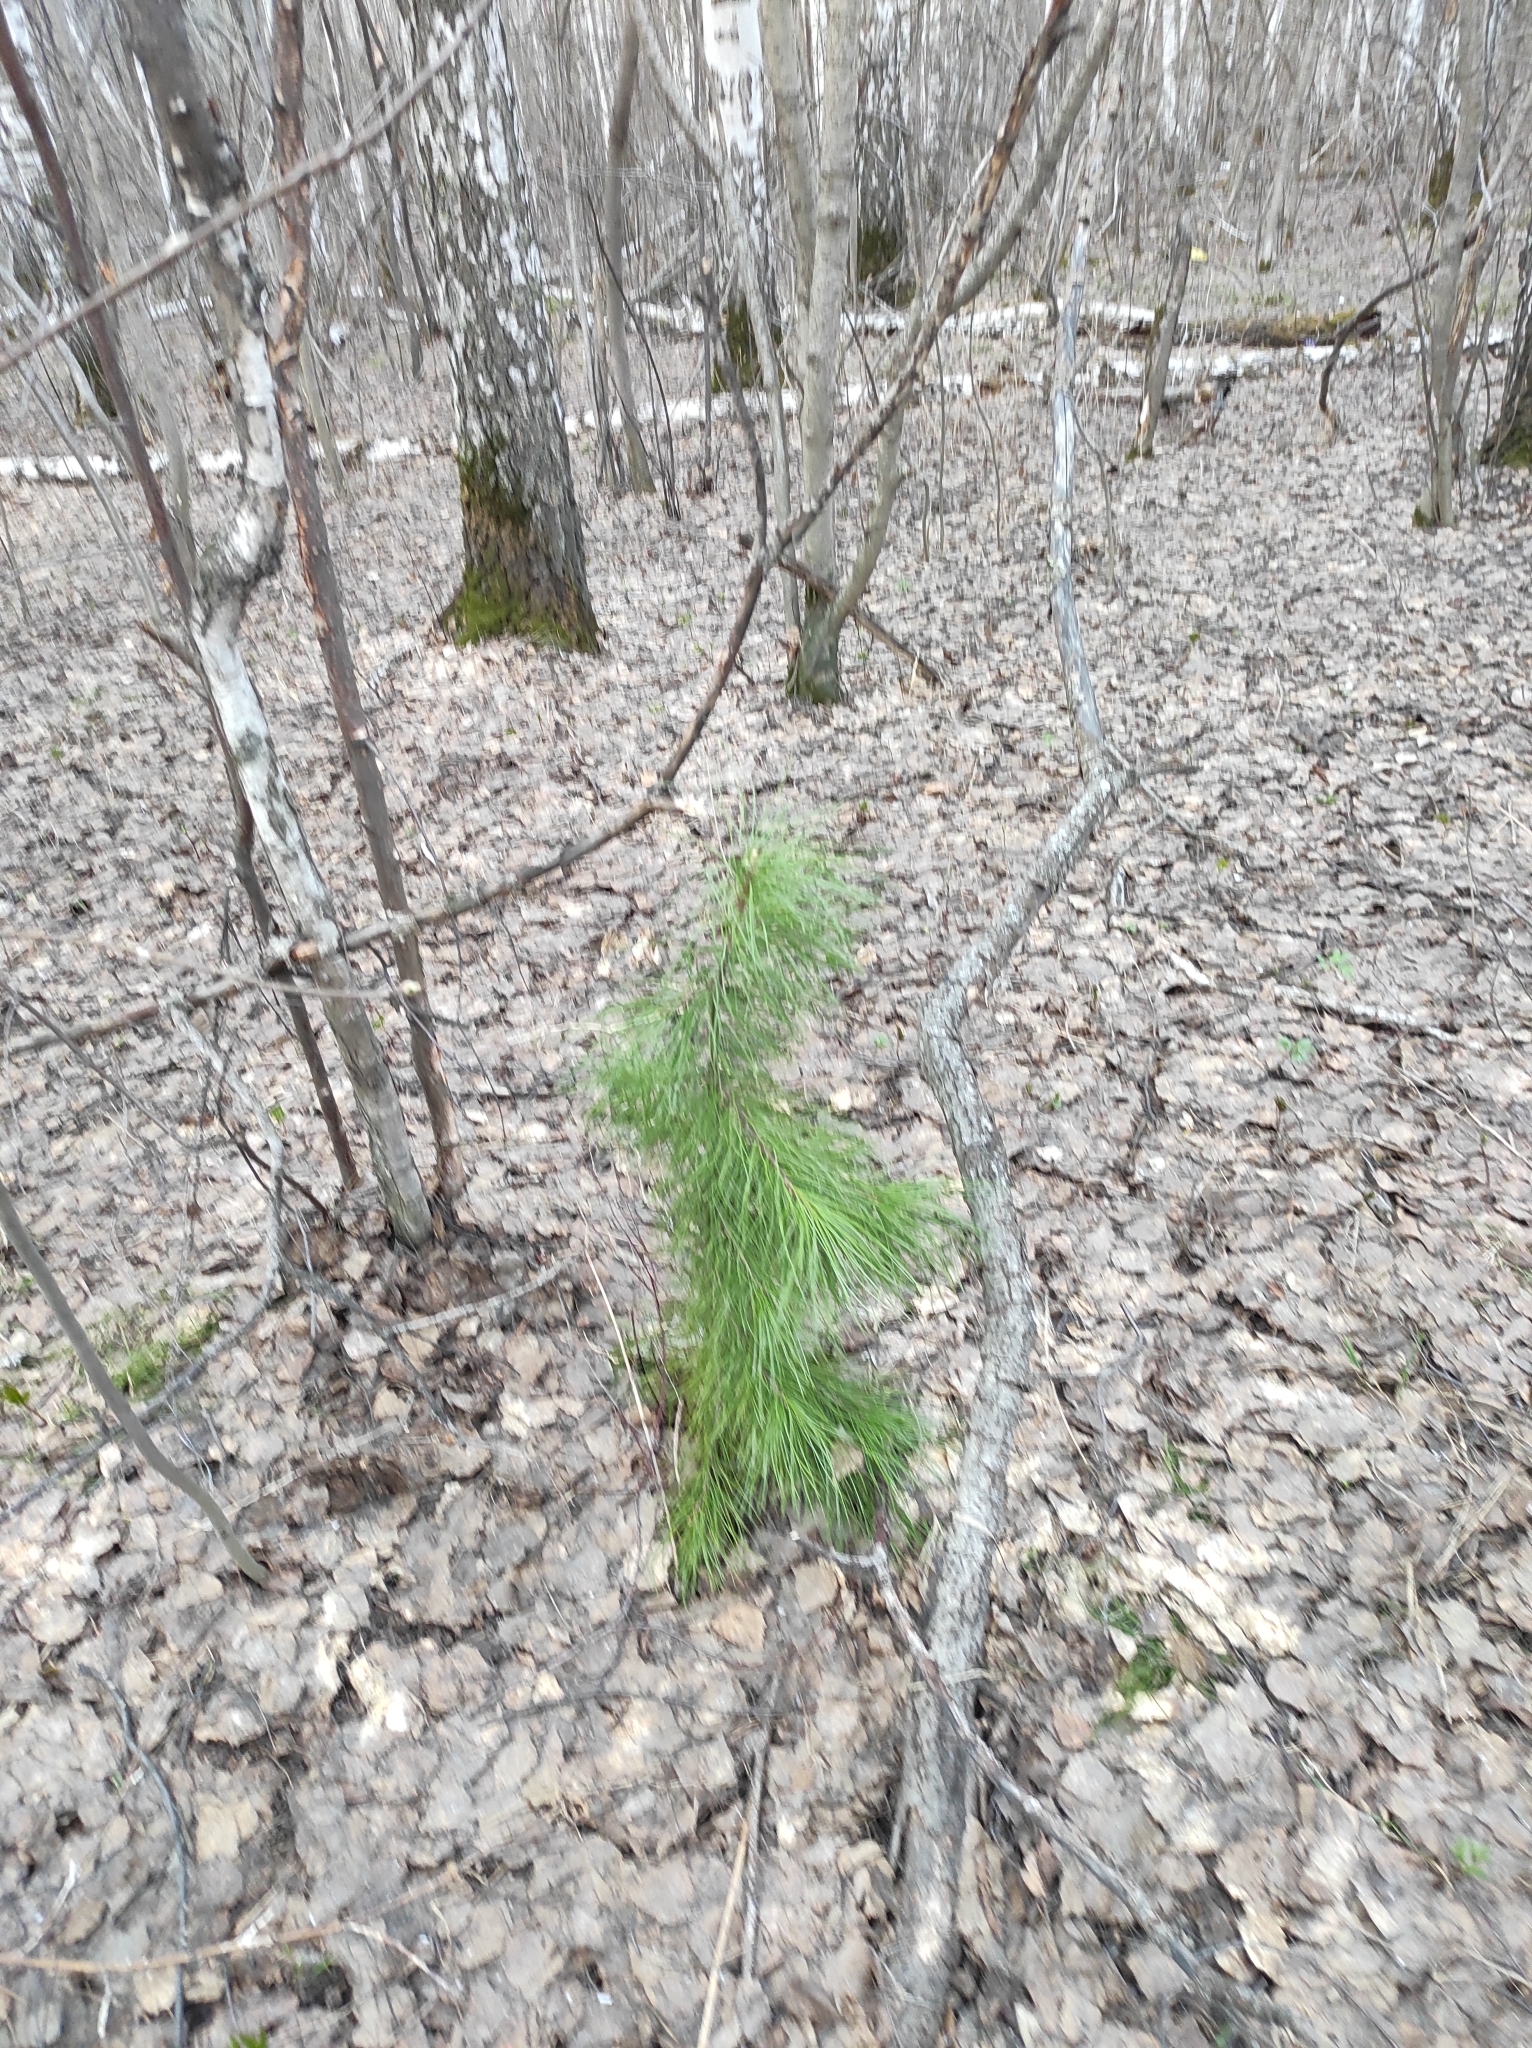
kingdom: Plantae
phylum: Tracheophyta
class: Pinopsida
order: Pinales
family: Pinaceae
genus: Pinus
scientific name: Pinus sibirica
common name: Siberian pine
